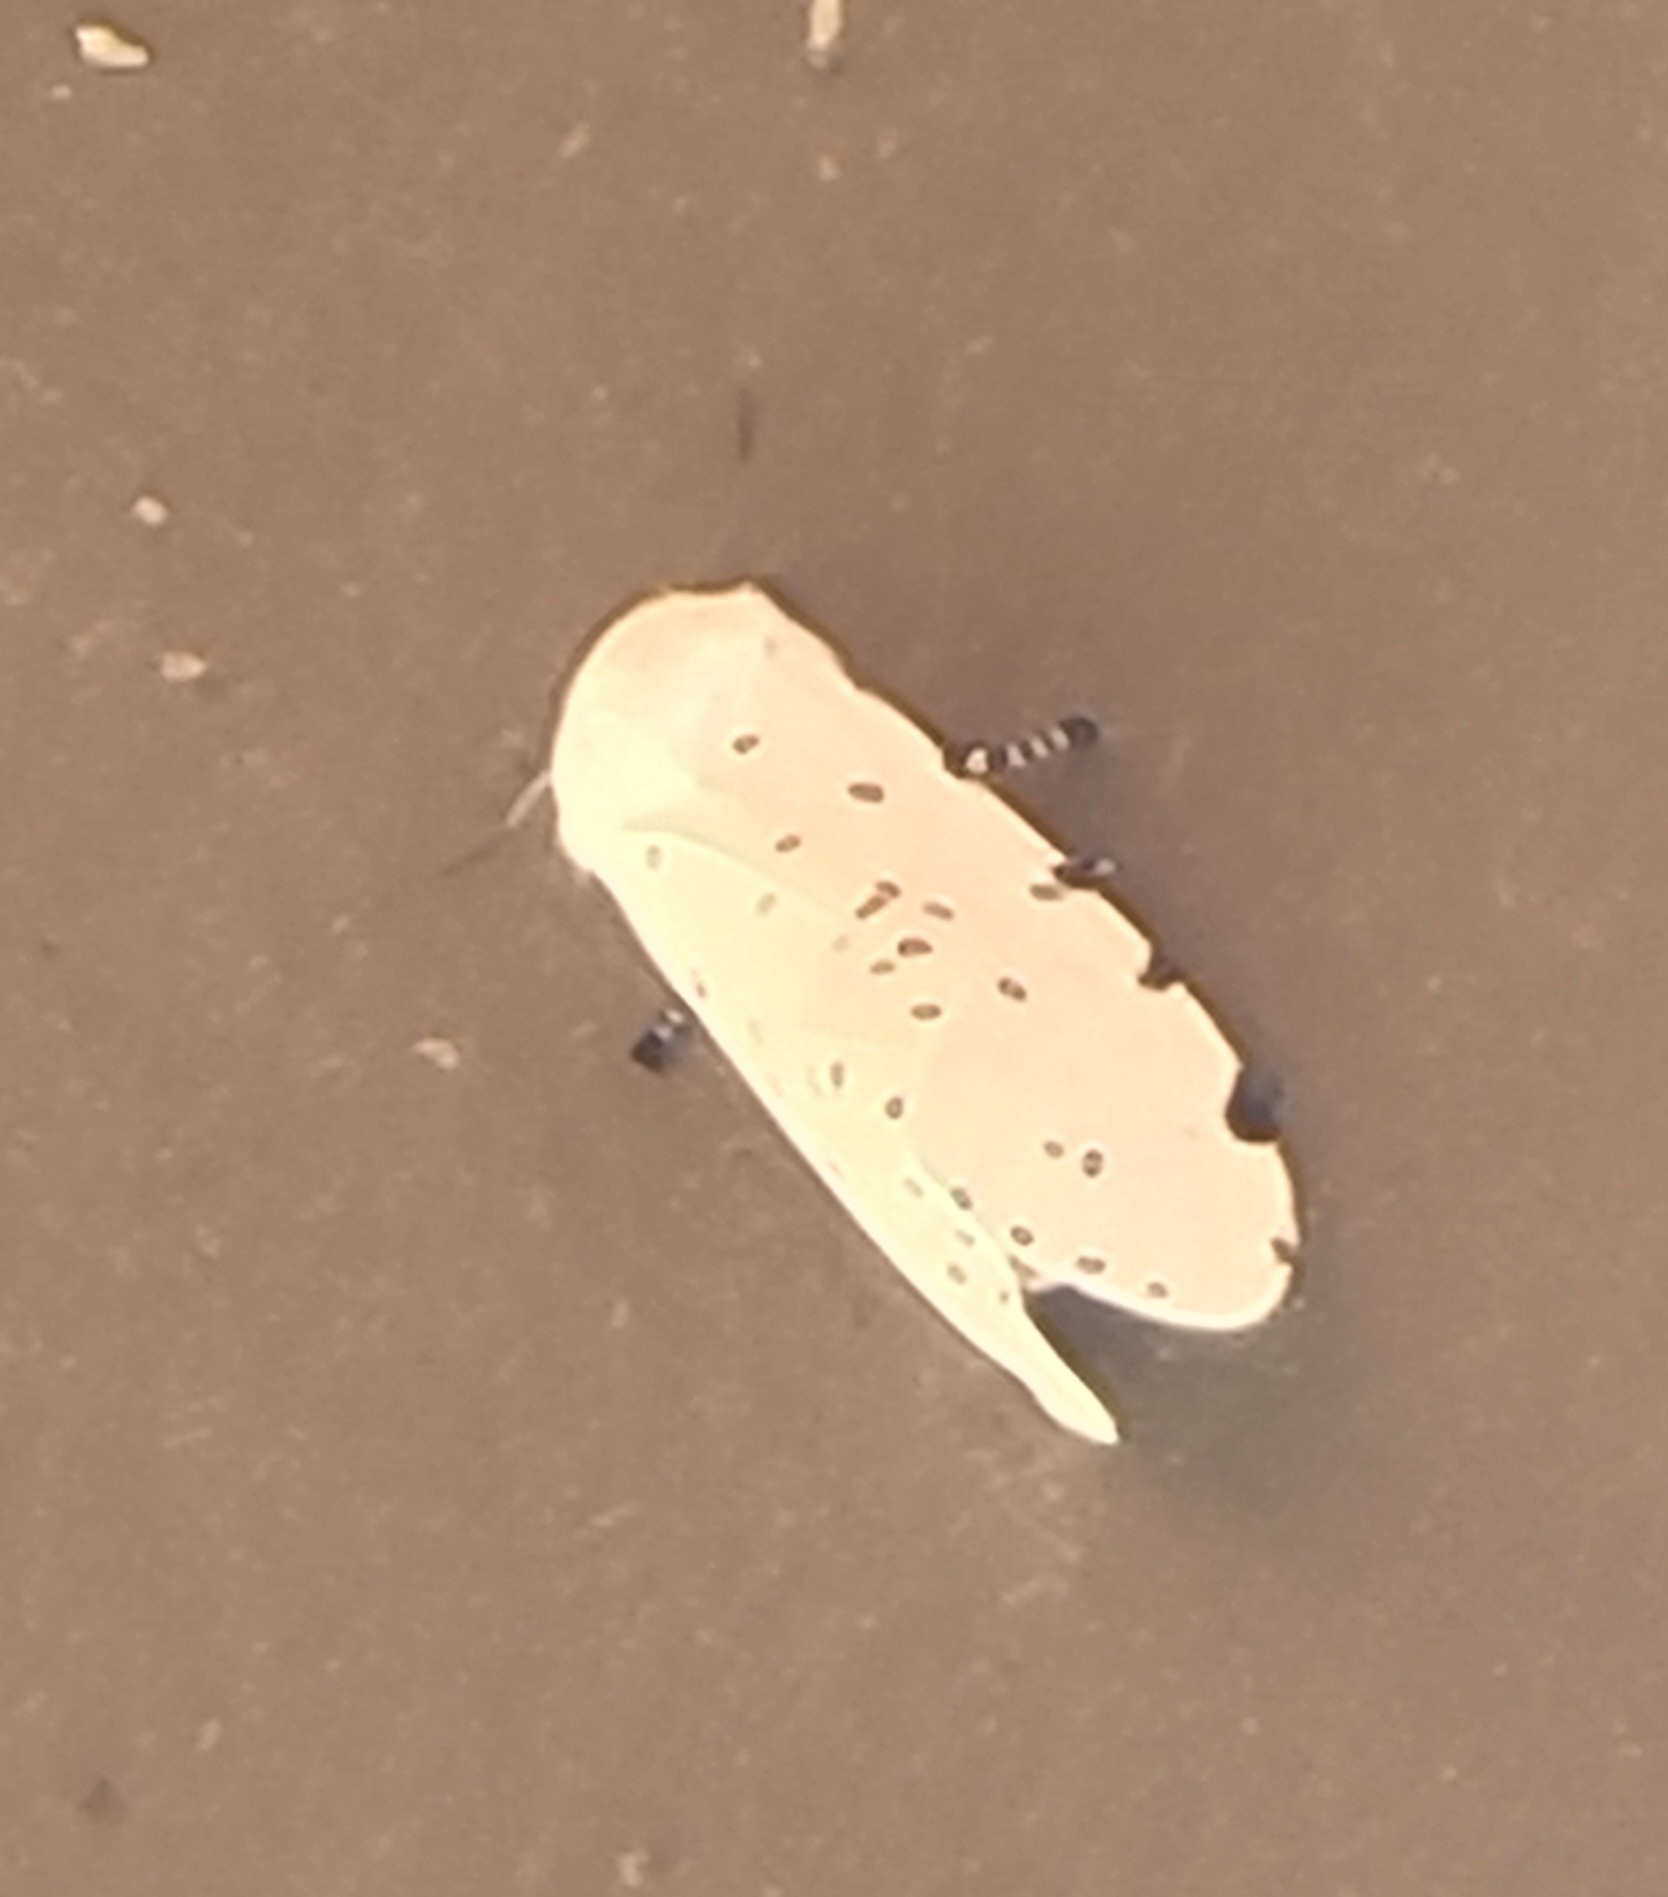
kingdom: Animalia
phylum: Arthropoda
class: Insecta
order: Lepidoptera
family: Erebidae
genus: Estigmene
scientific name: Estigmene acrea
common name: Salt marsh moth
